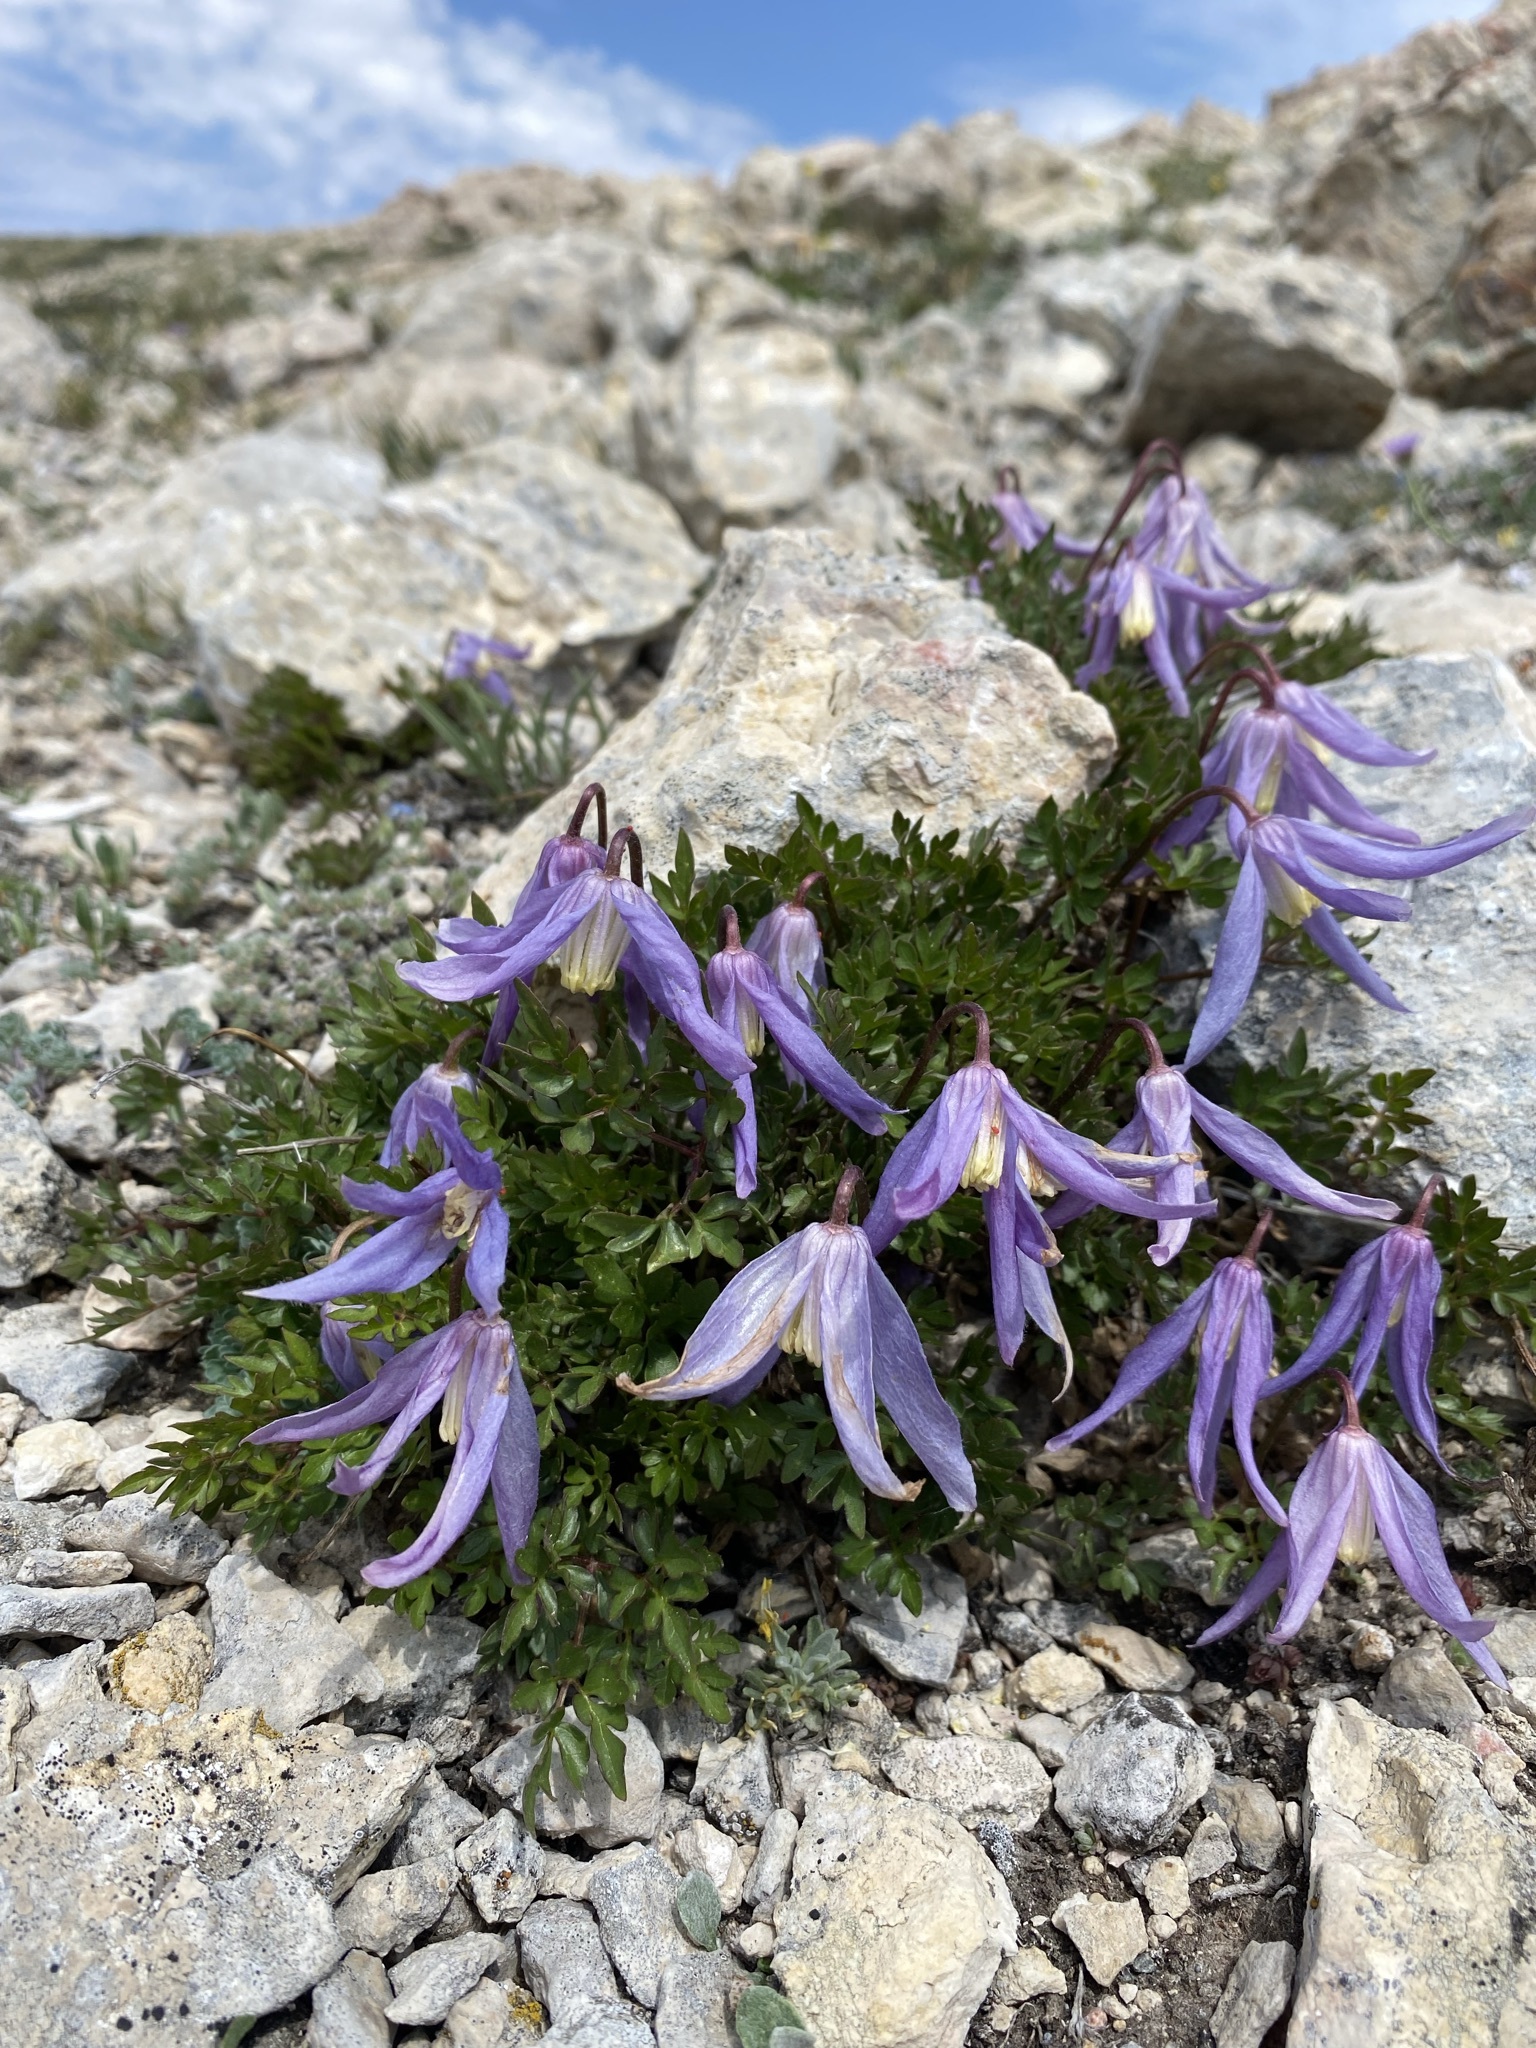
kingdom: Plantae
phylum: Tracheophyta
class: Magnoliopsida
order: Ranunculales
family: Ranunculaceae
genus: Clematis
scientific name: Clematis columbiana
